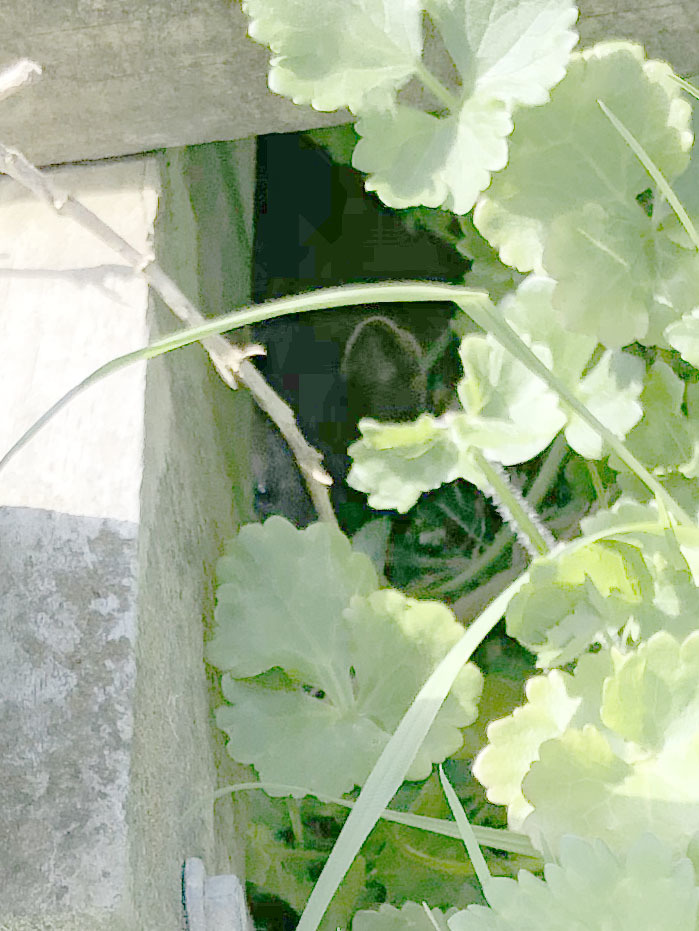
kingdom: Animalia
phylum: Chordata
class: Mammalia
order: Carnivora
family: Mustelidae
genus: Mustela
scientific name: Mustela erminea
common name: Stoat
